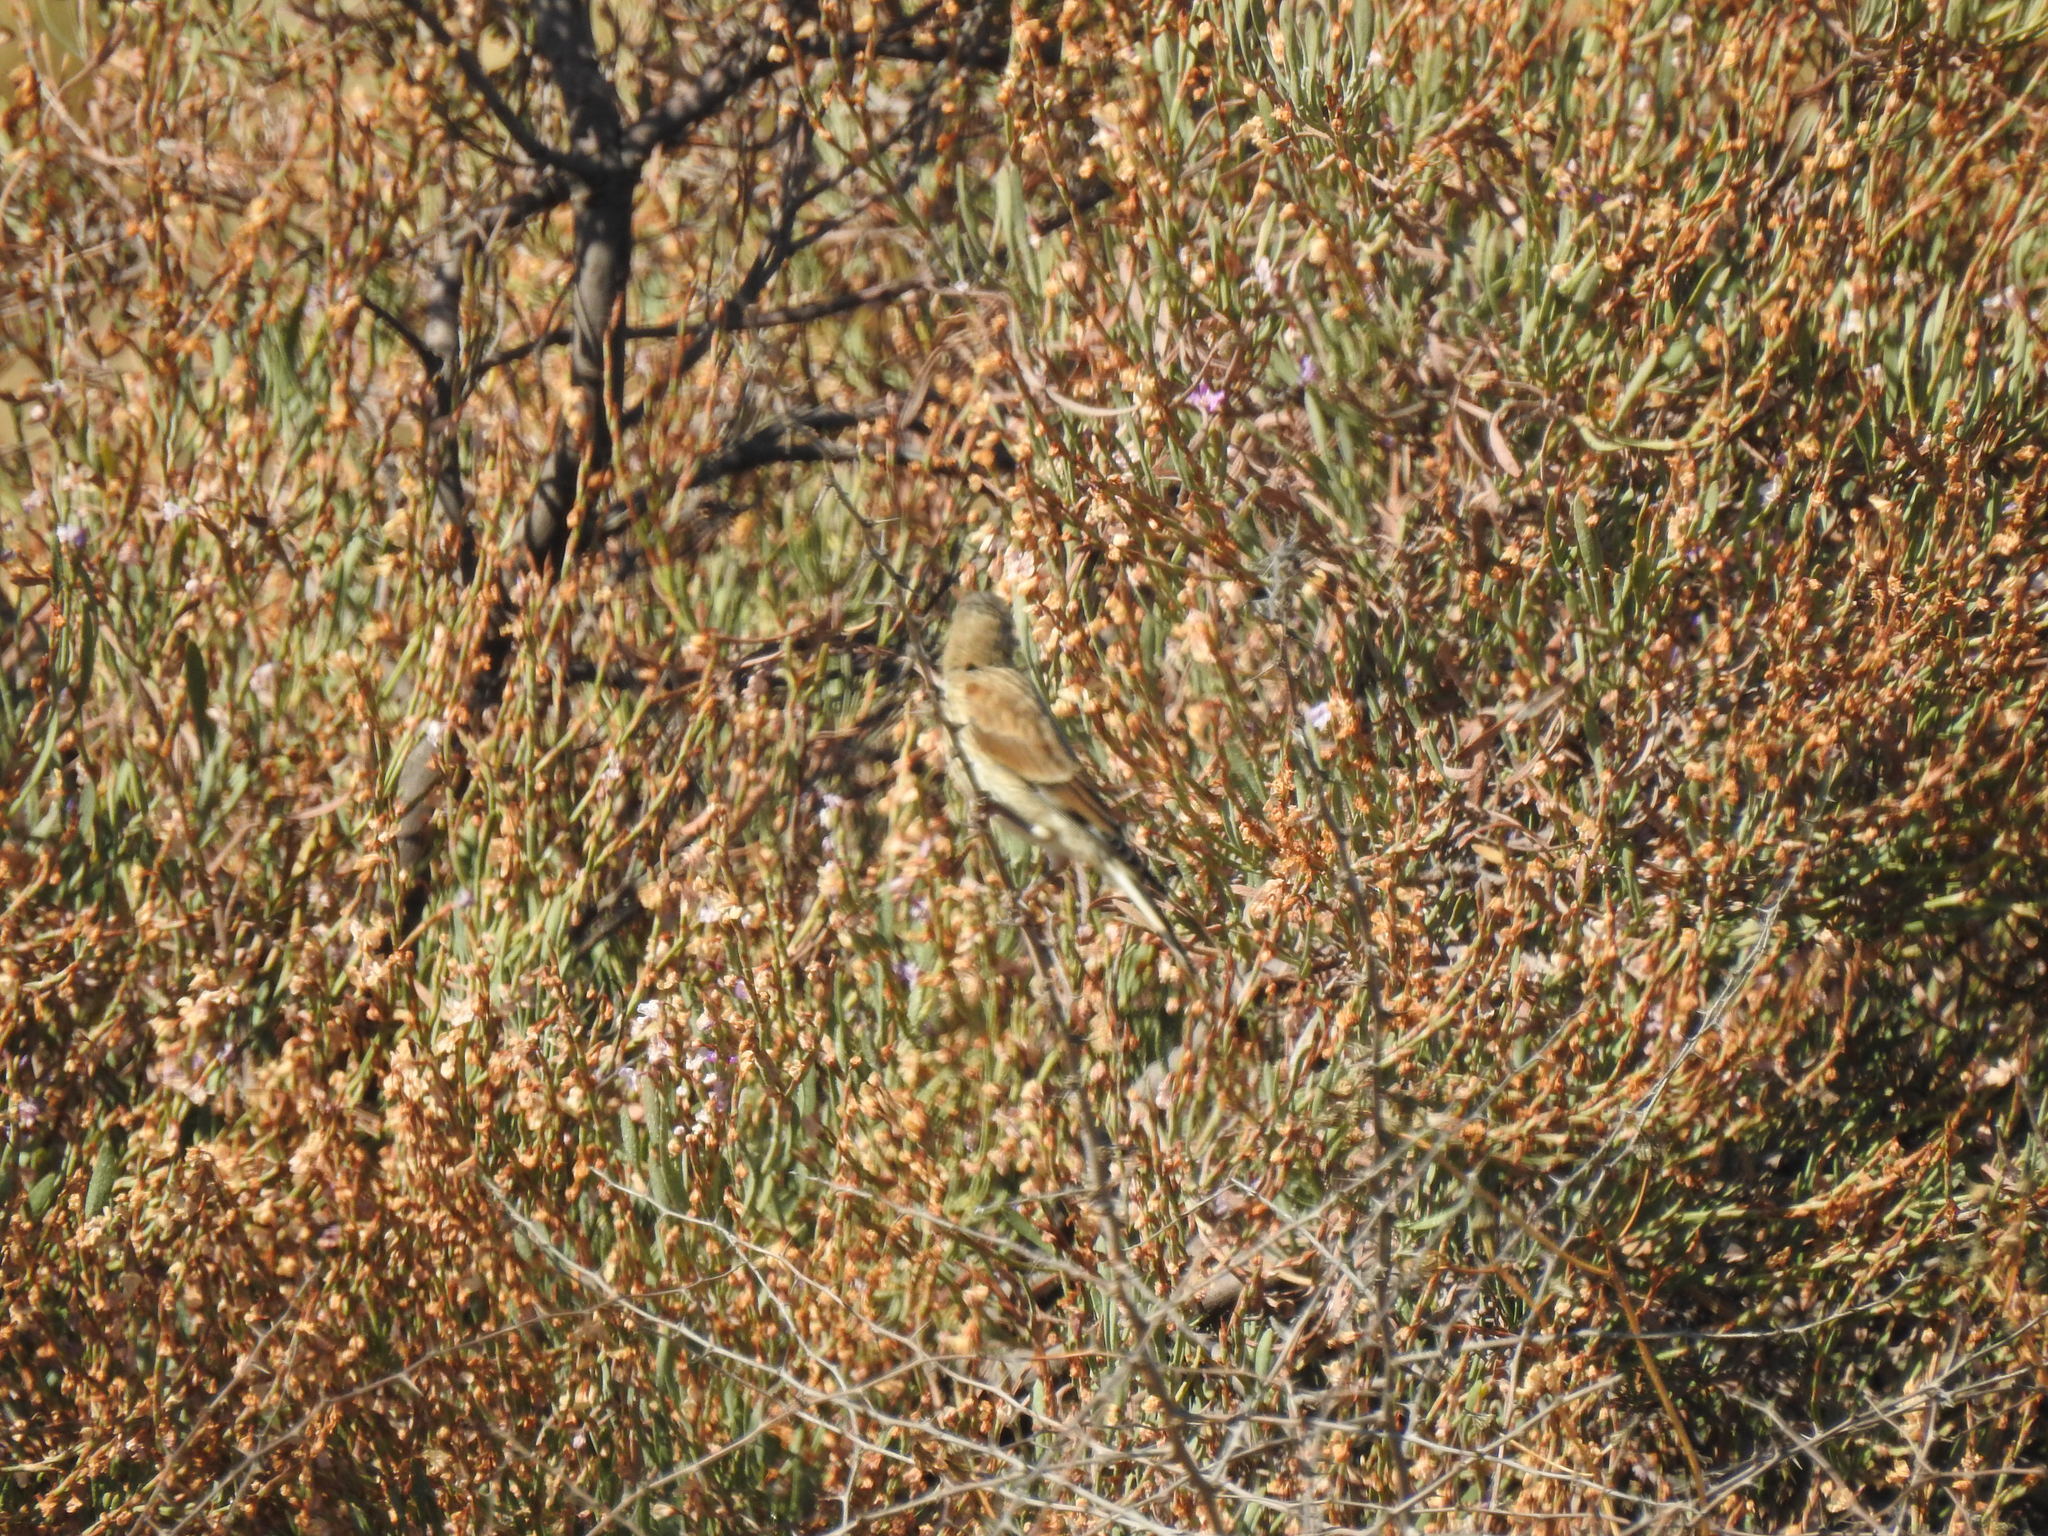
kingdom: Animalia
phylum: Chordata
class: Aves
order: Passeriformes
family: Fringillidae
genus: Linaria
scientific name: Linaria cannabina
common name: Common linnet
